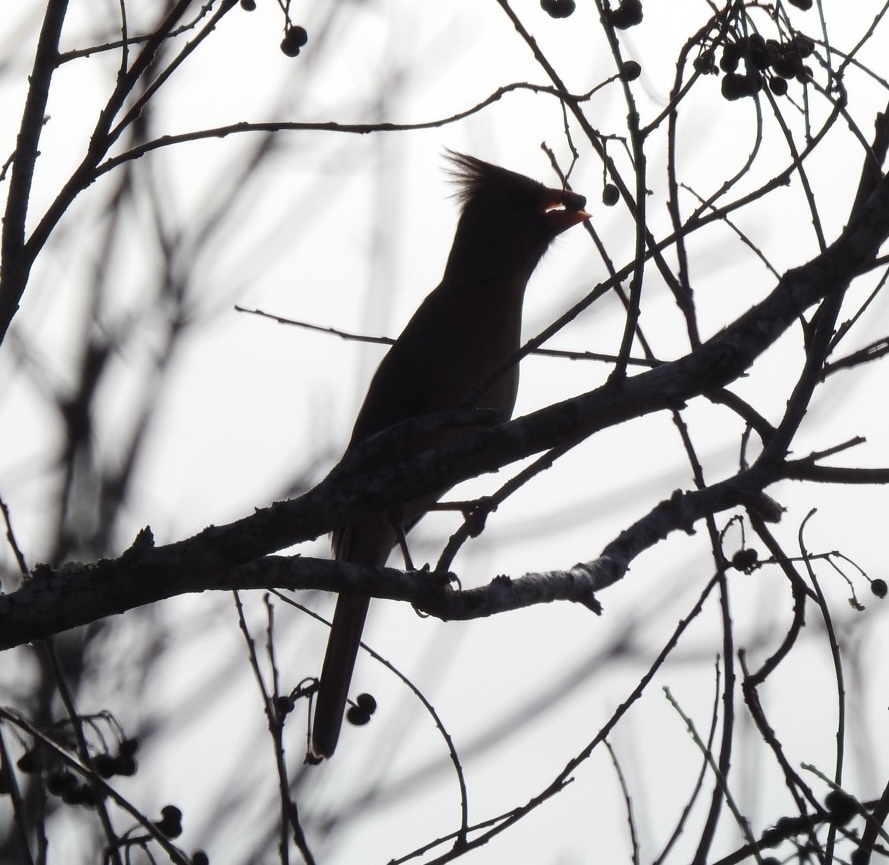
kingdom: Animalia
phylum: Chordata
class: Aves
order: Passeriformes
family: Cardinalidae
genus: Cardinalis
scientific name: Cardinalis cardinalis
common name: Northern cardinal
